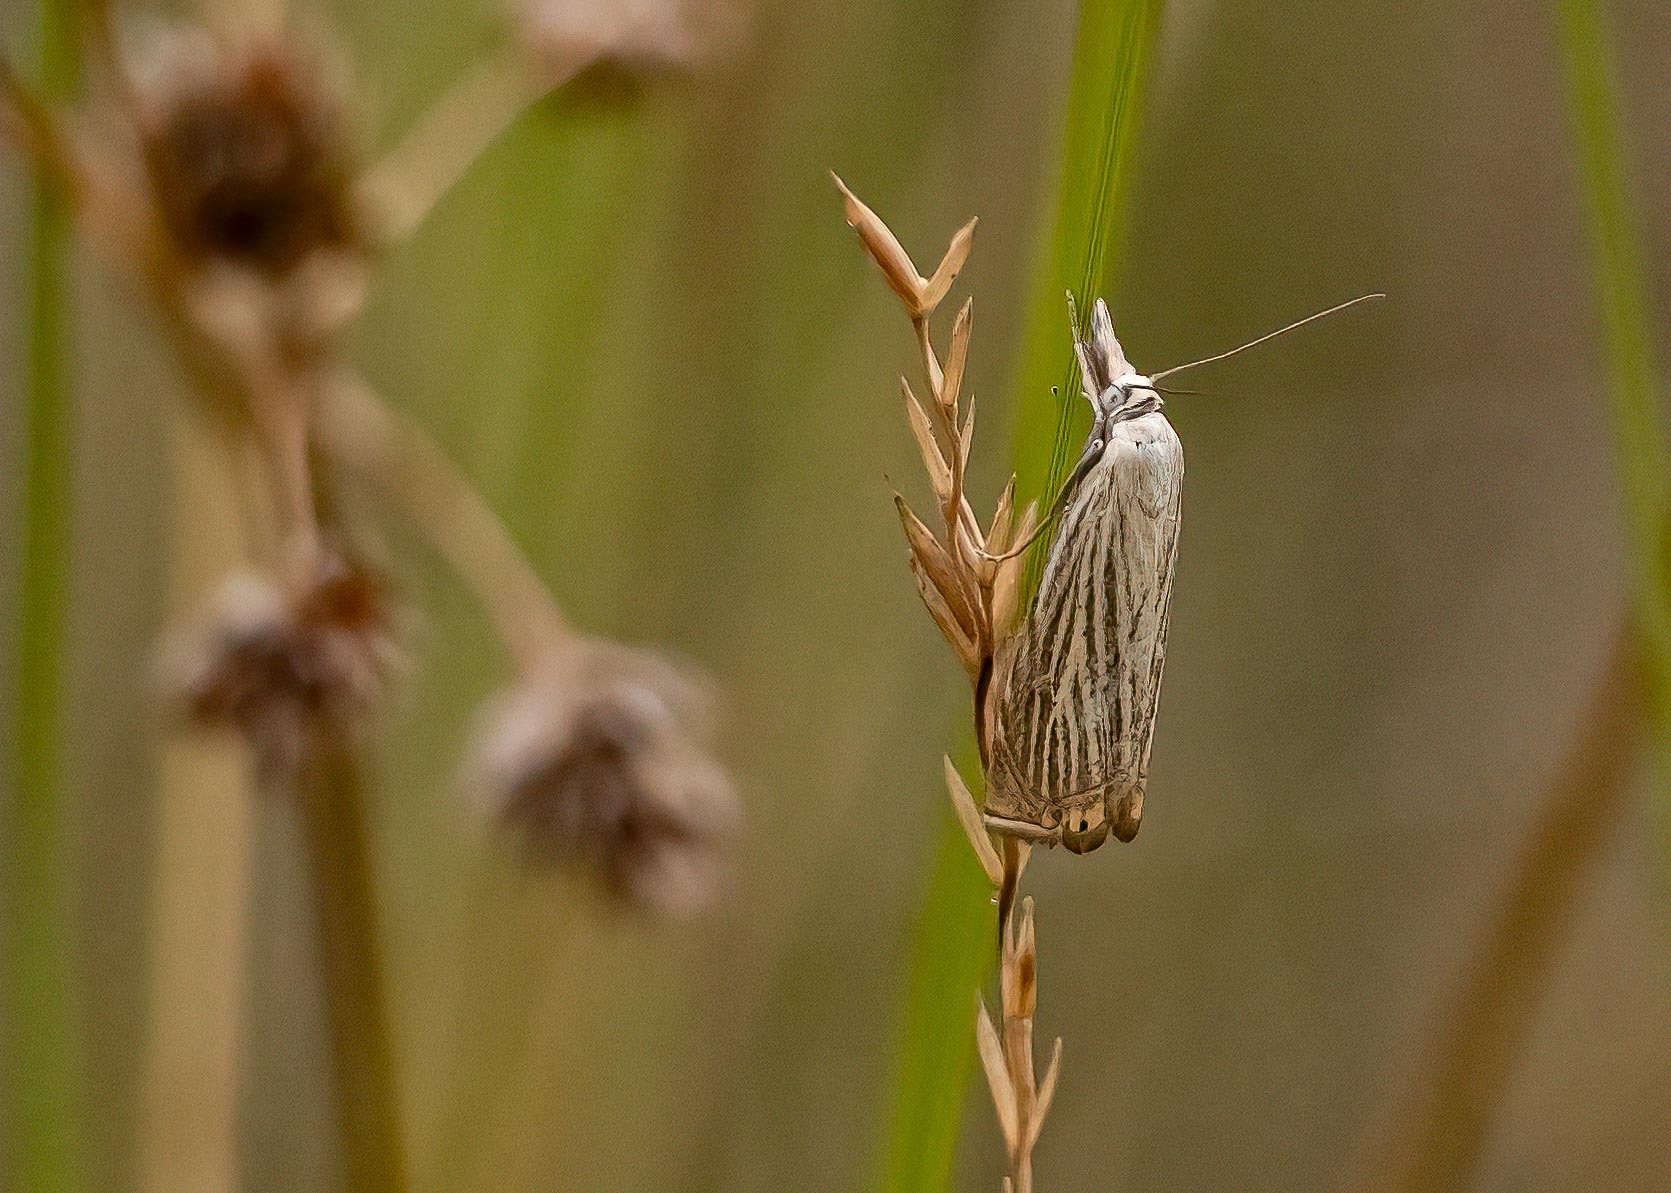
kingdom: Animalia
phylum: Arthropoda
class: Insecta
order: Lepidoptera
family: Crambidae
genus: Chrysoteuchia
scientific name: Chrysoteuchia culmella
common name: Garden grass-veneer
